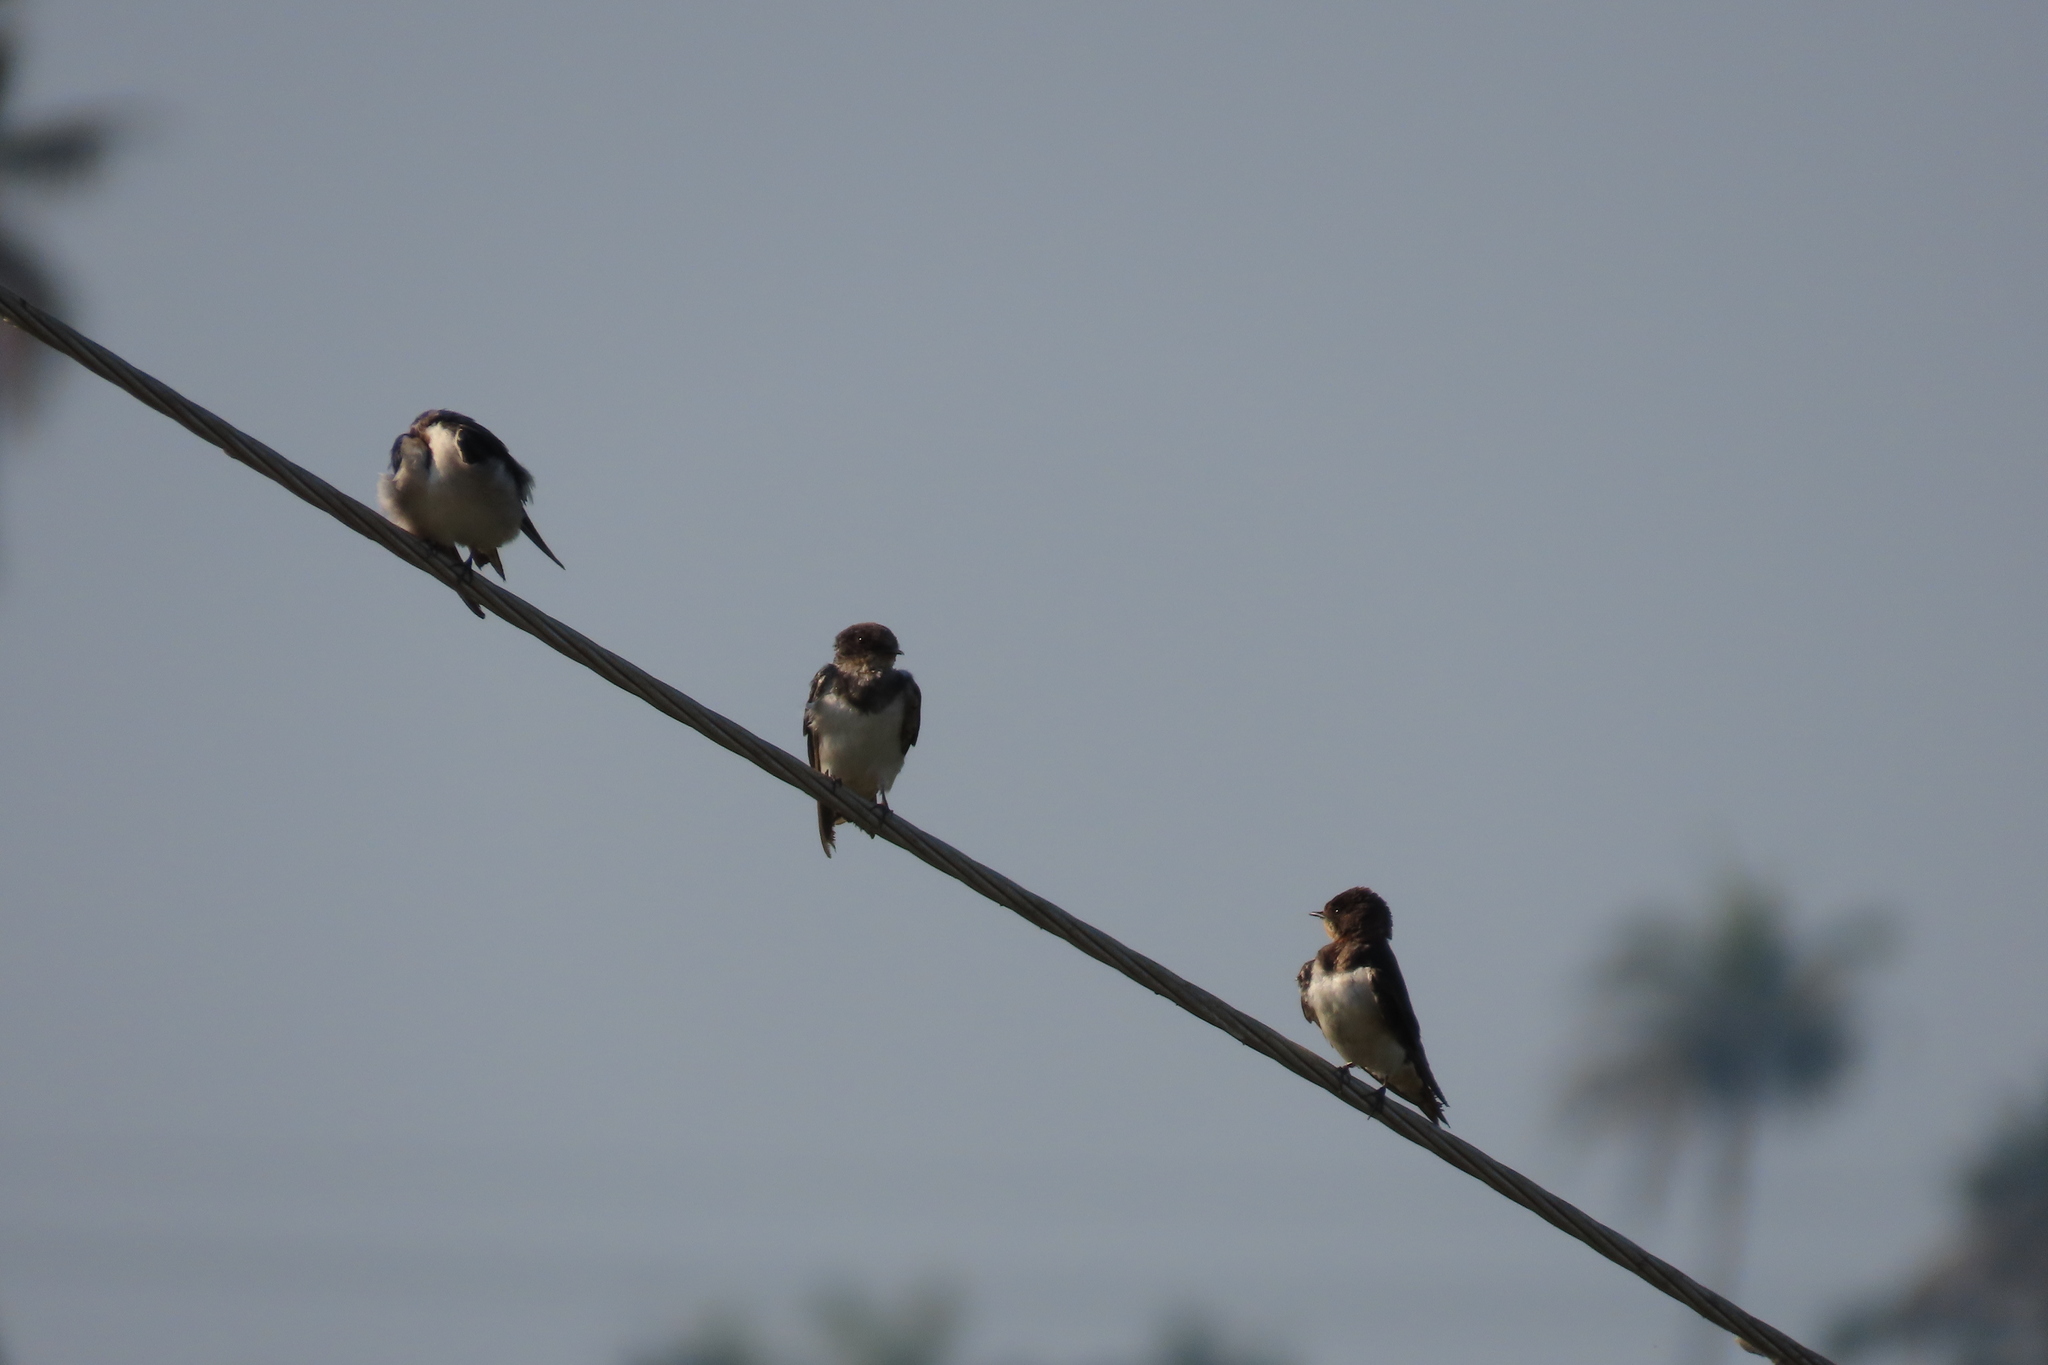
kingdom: Animalia
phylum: Chordata
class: Aves
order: Passeriformes
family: Hirundinidae
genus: Hirundo
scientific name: Hirundo rustica
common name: Barn swallow
